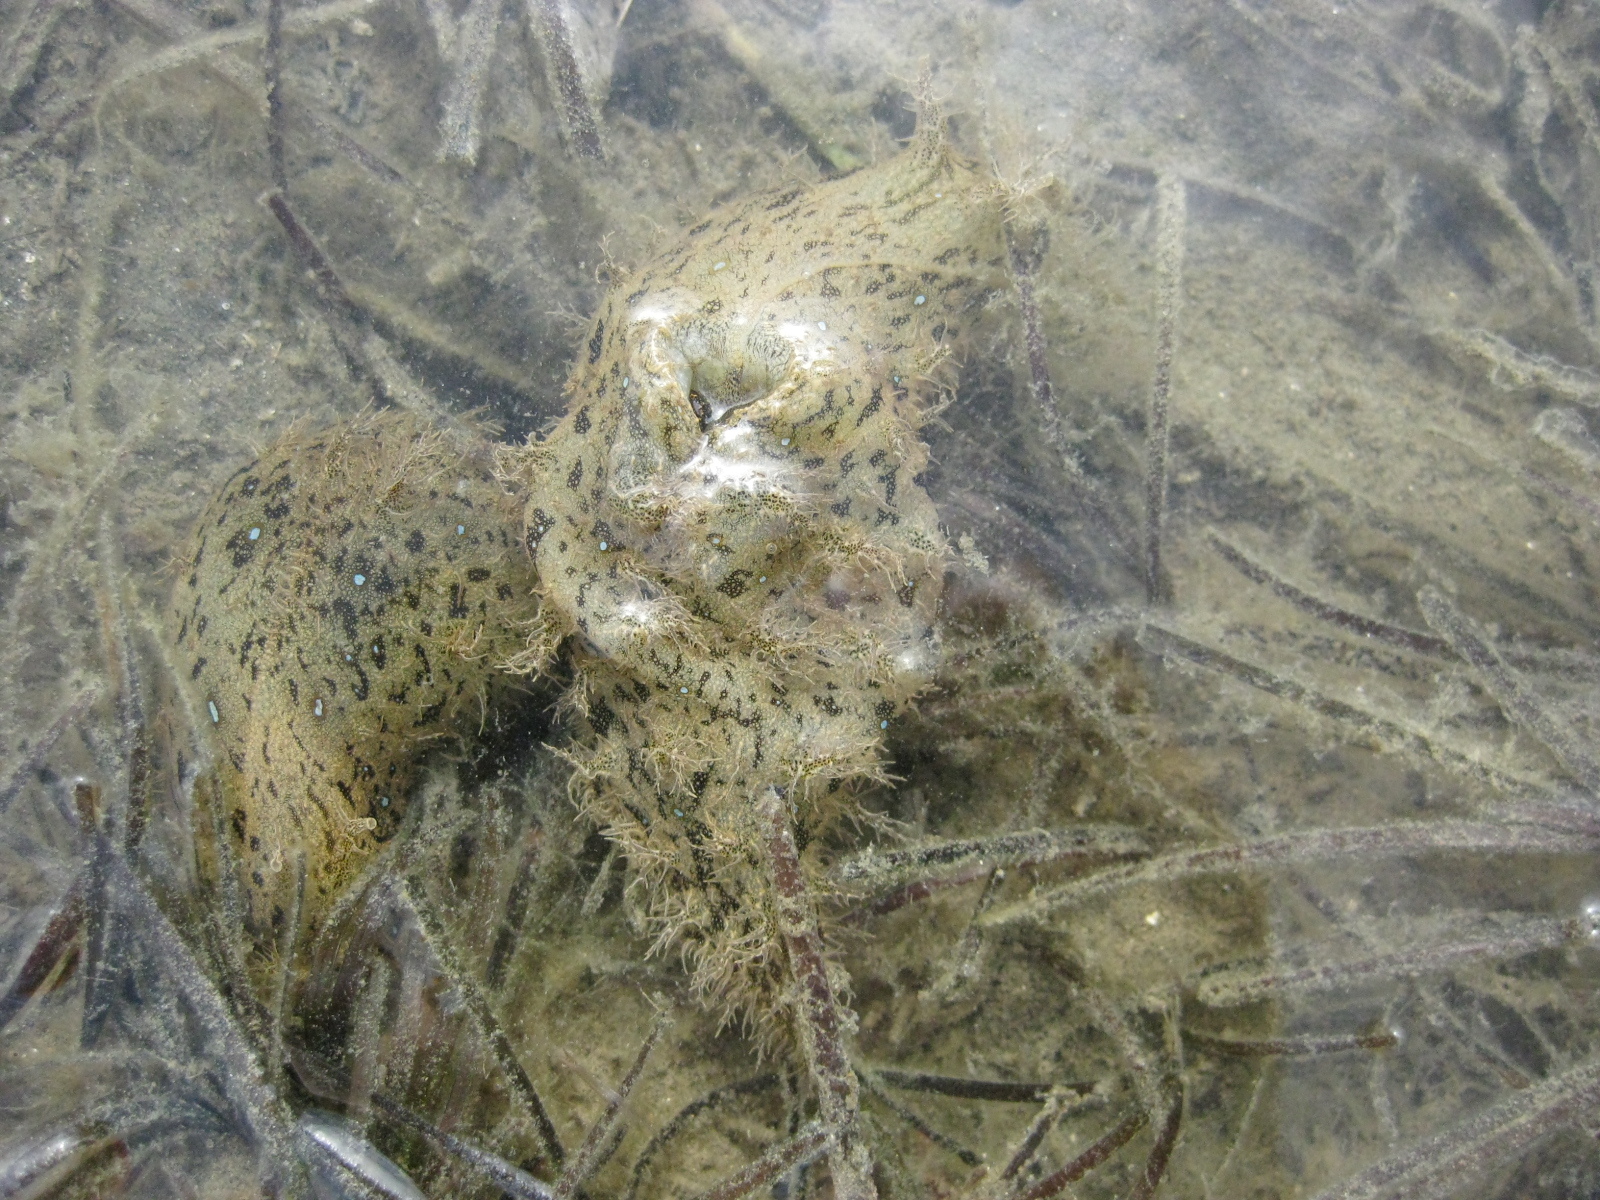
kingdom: Animalia
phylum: Mollusca
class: Gastropoda
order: Aplysiida
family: Aplysiidae
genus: Bursatella
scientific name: Bursatella leachii
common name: Shaggy sea hare
